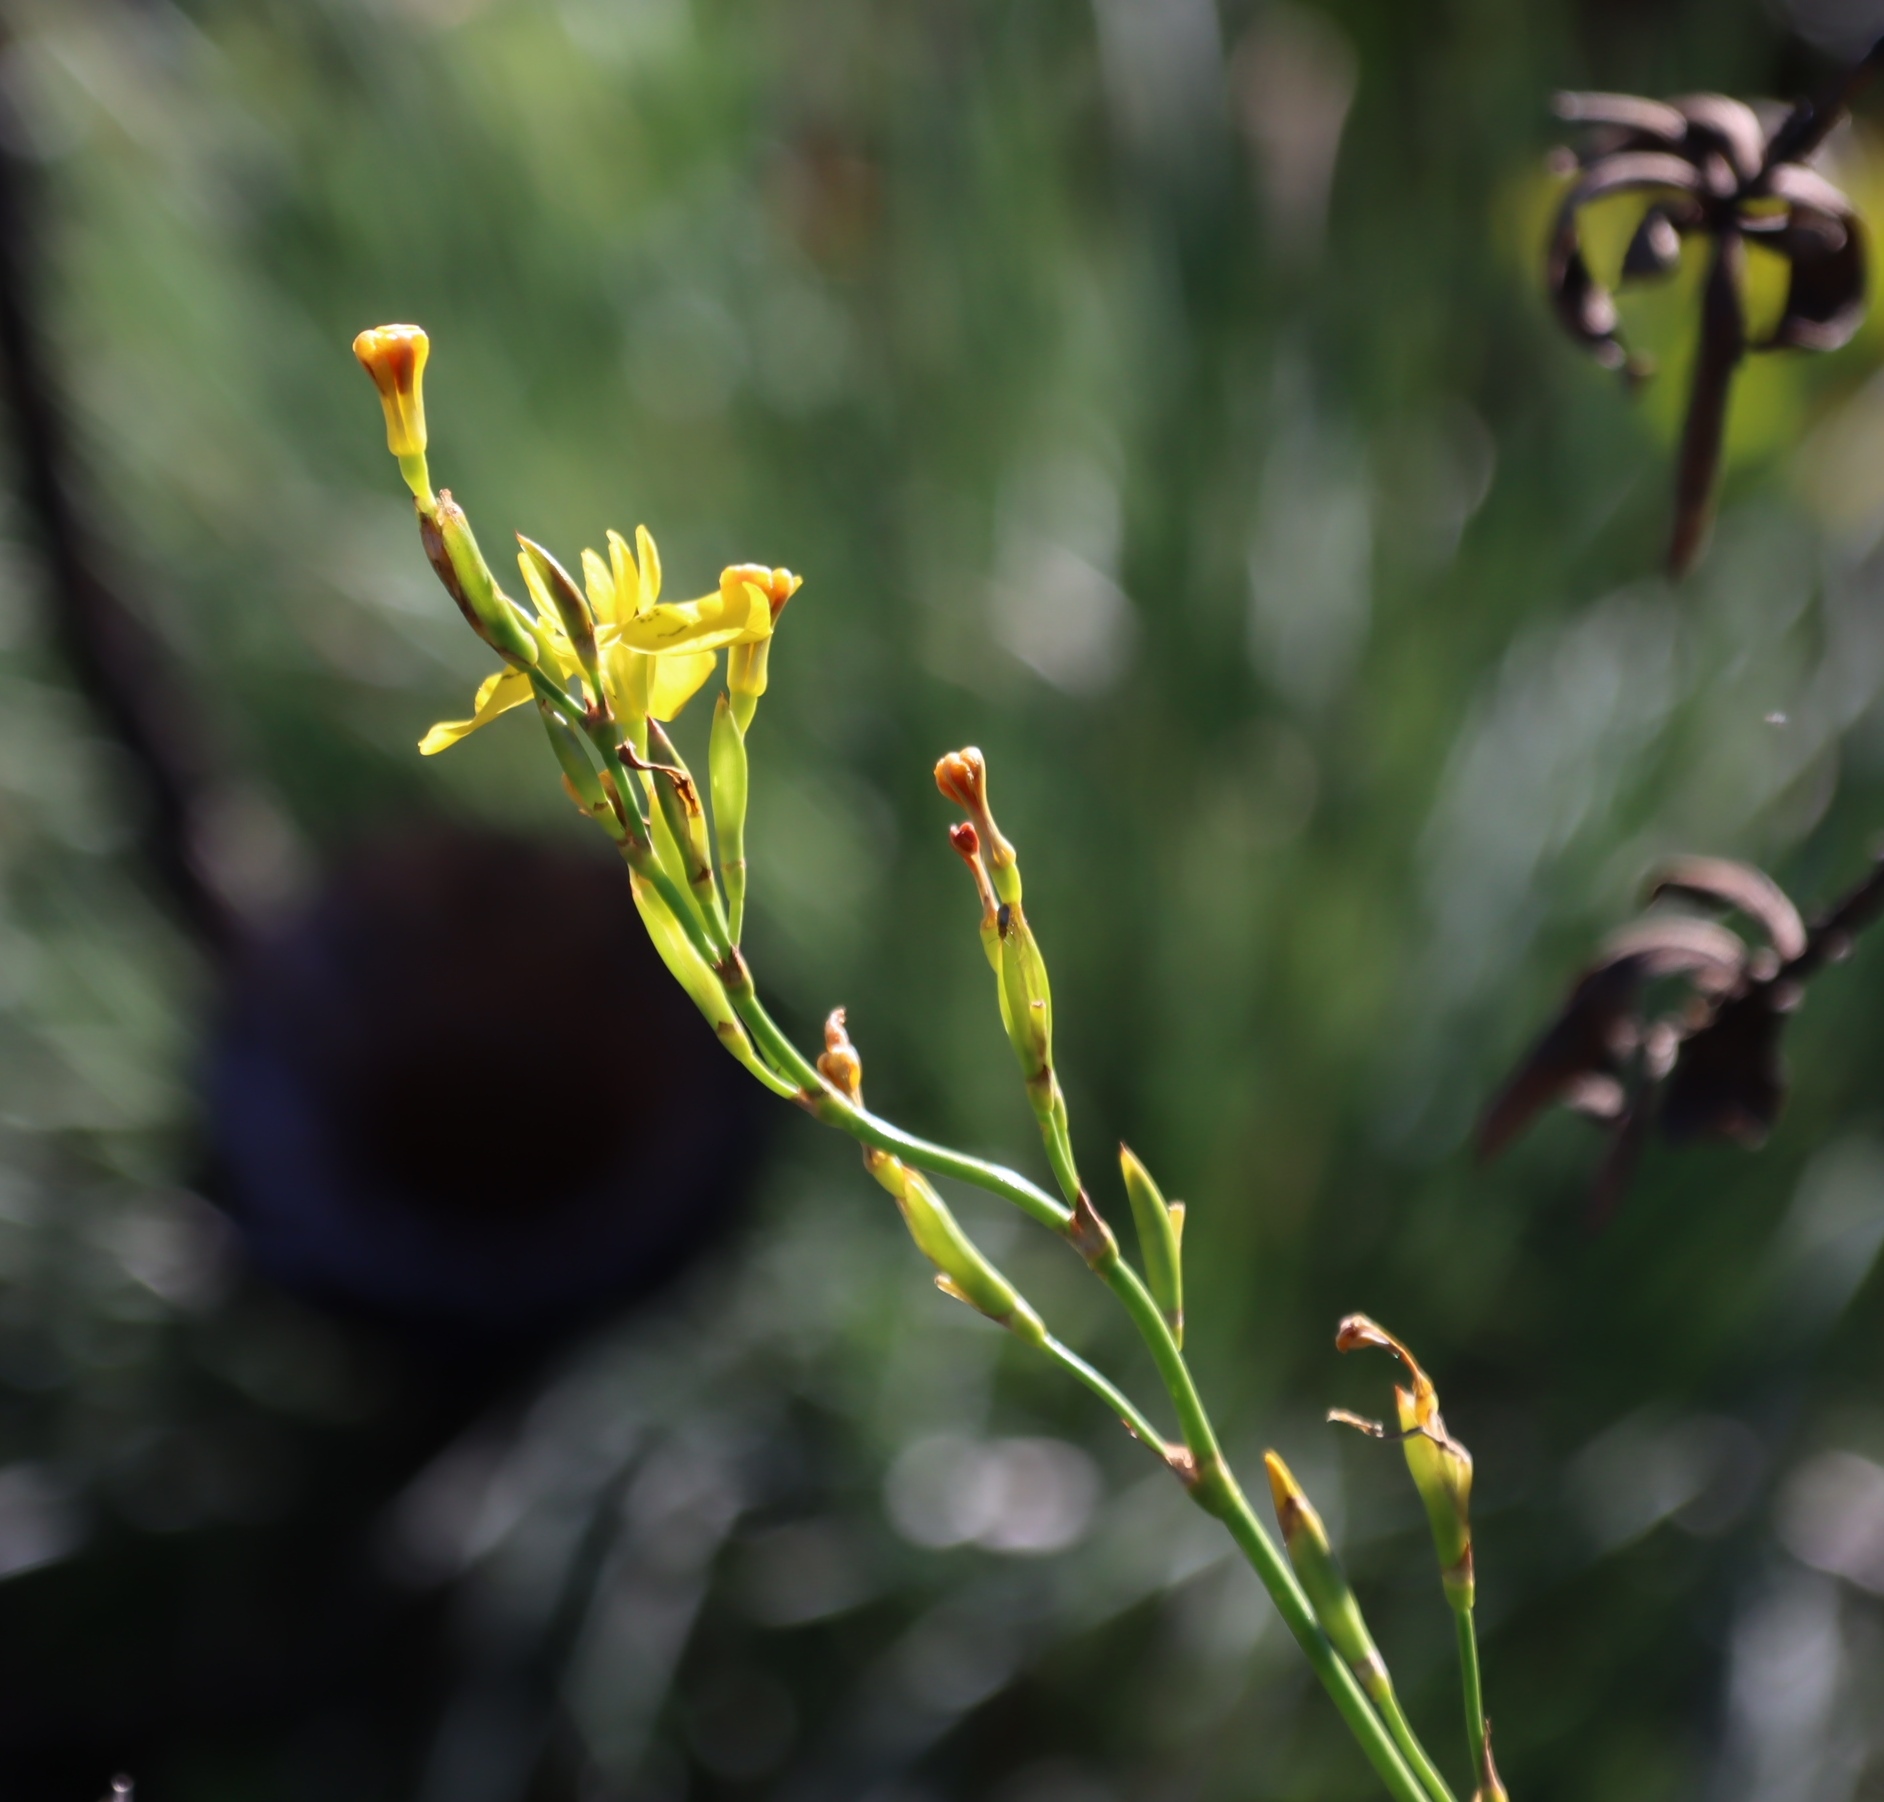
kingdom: Plantae
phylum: Tracheophyta
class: Liliopsida
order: Asparagales
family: Iridaceae
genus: Moraea
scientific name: Moraea ramosissima
